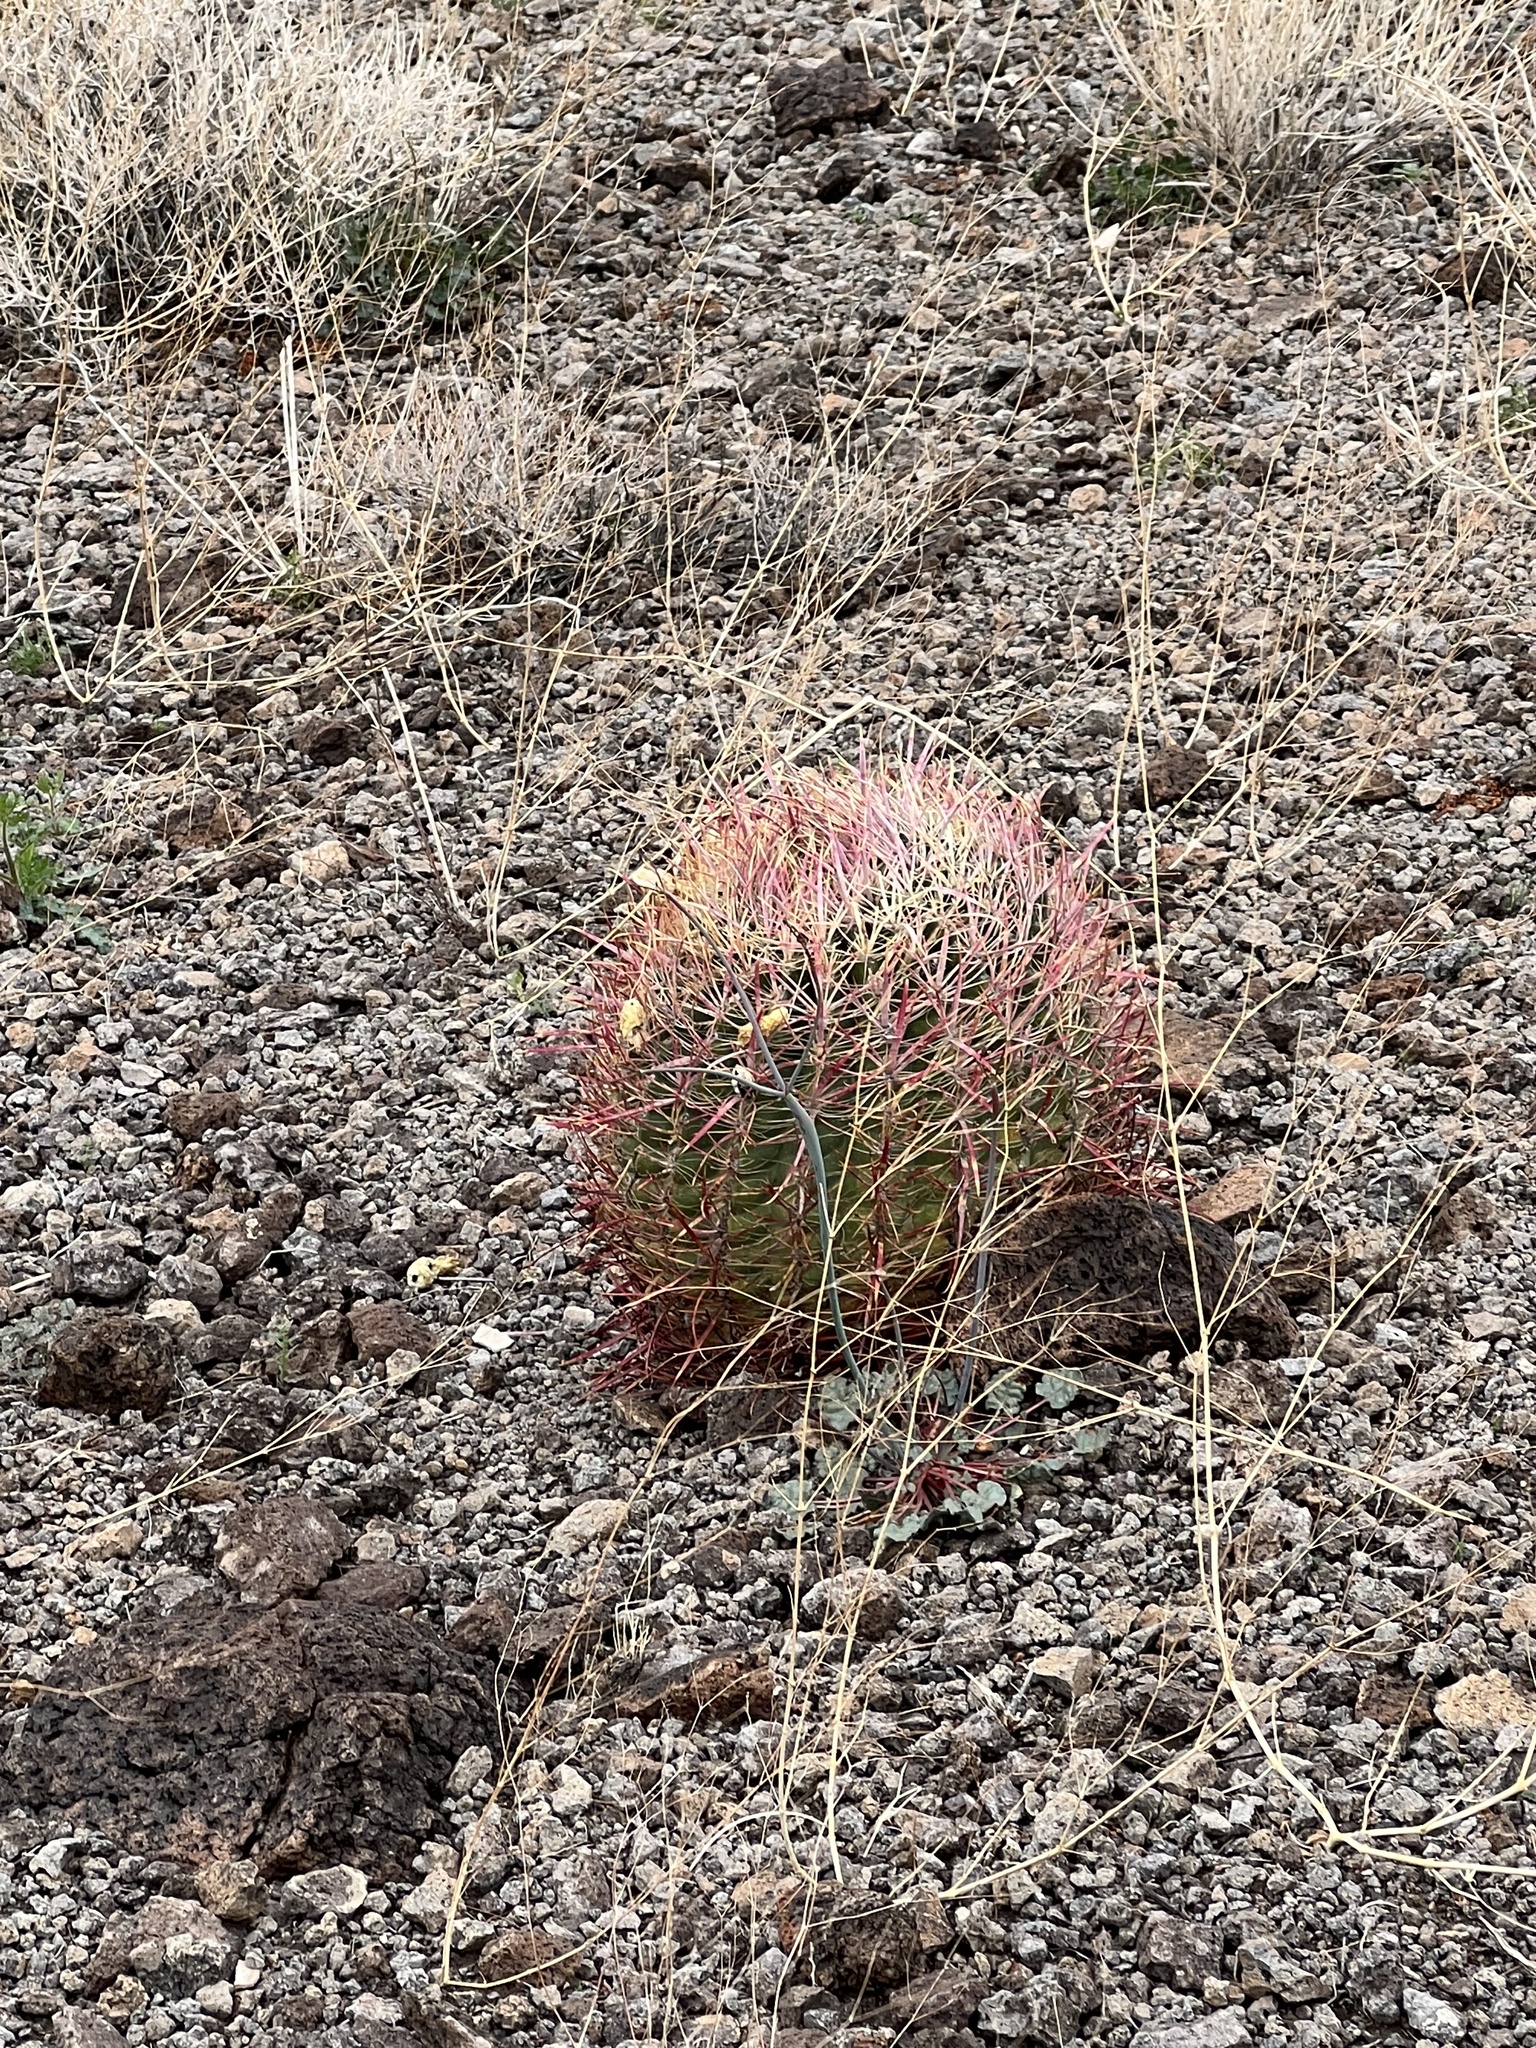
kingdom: Plantae
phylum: Tracheophyta
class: Magnoliopsida
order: Caryophyllales
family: Cactaceae
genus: Ferocactus
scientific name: Ferocactus cylindraceus
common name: California barrel cactus
